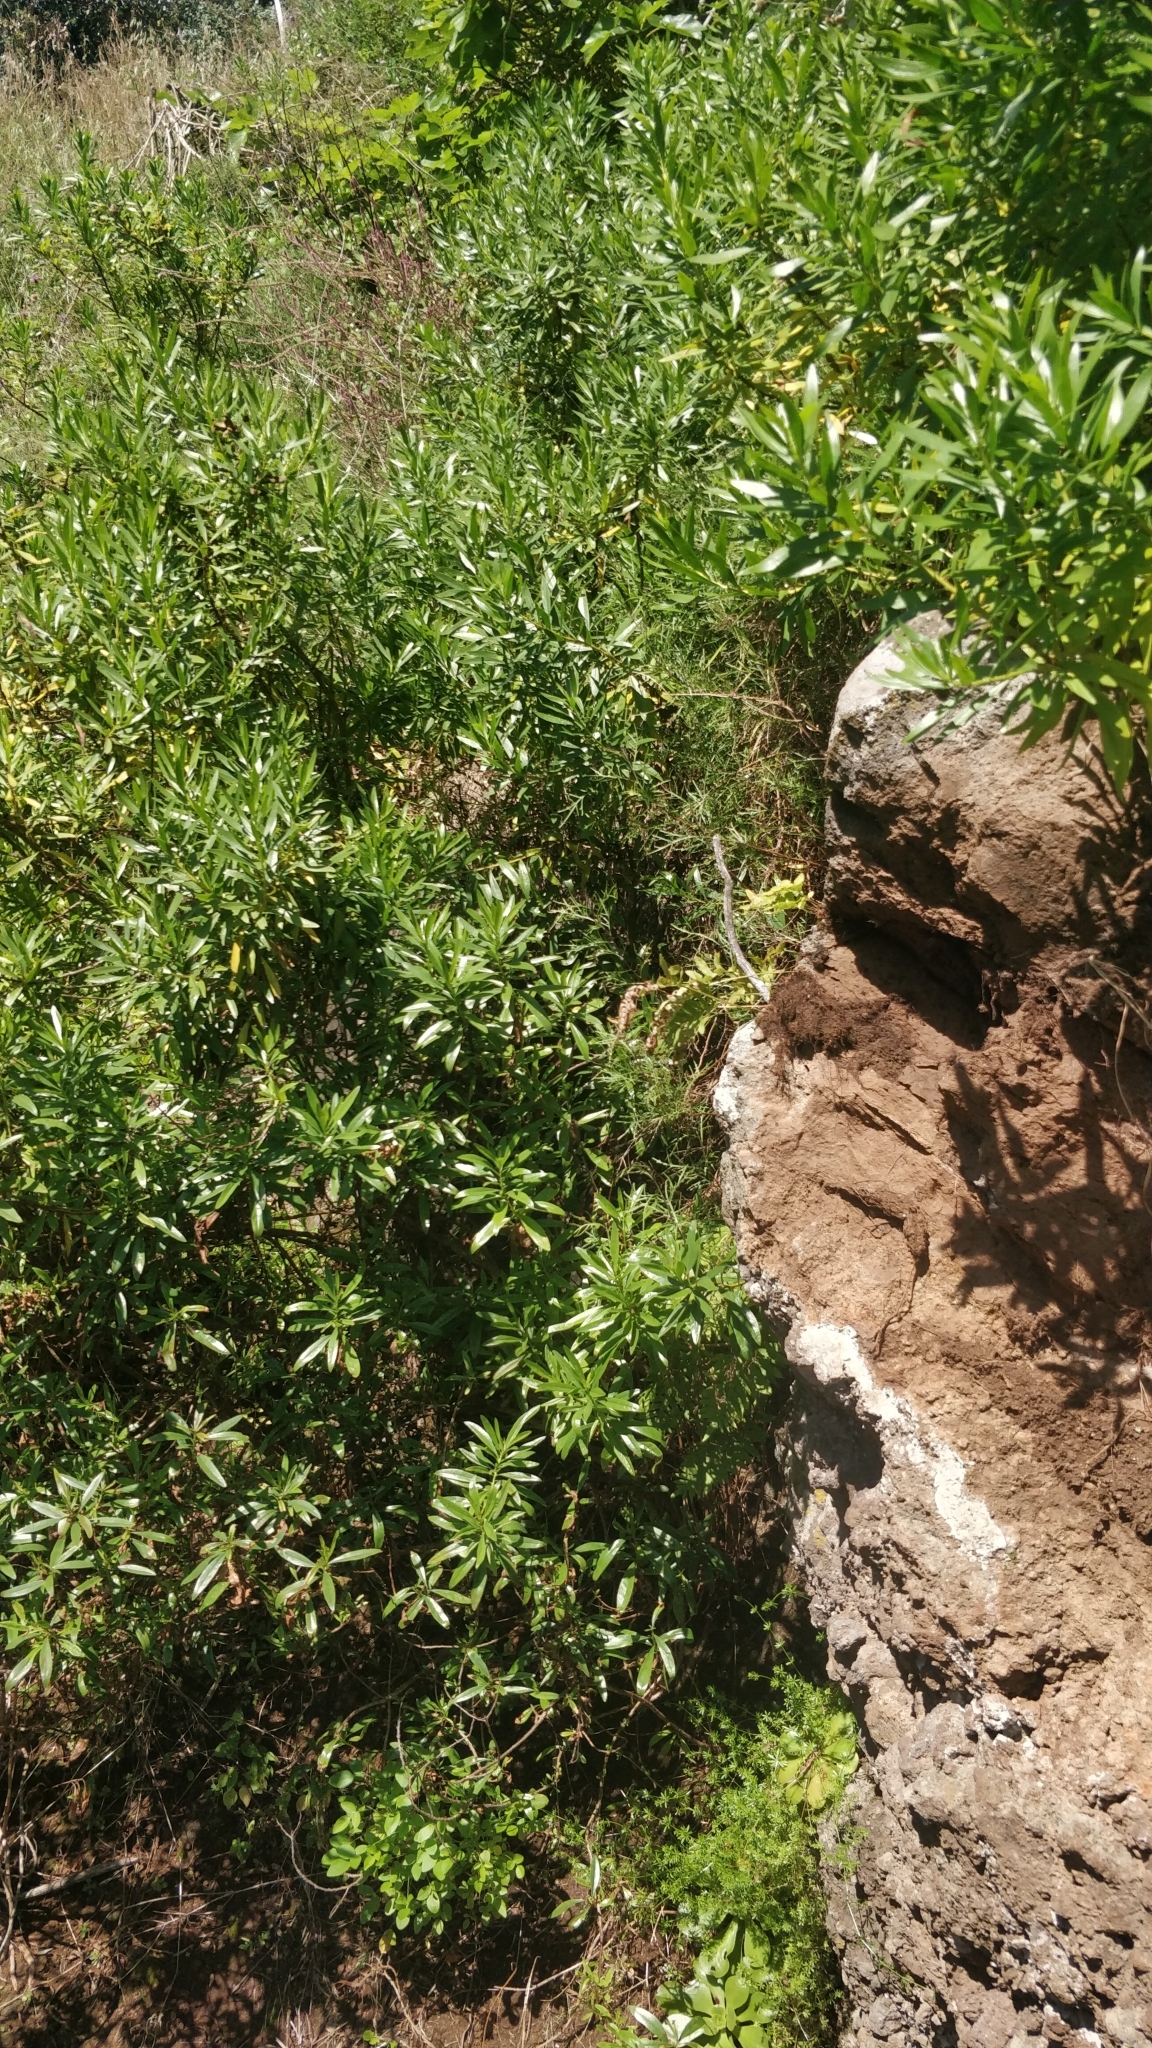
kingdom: Plantae
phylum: Tracheophyta
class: Magnoliopsida
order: Lamiales
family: Plantaginaceae
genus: Globularia
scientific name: Globularia salicina
